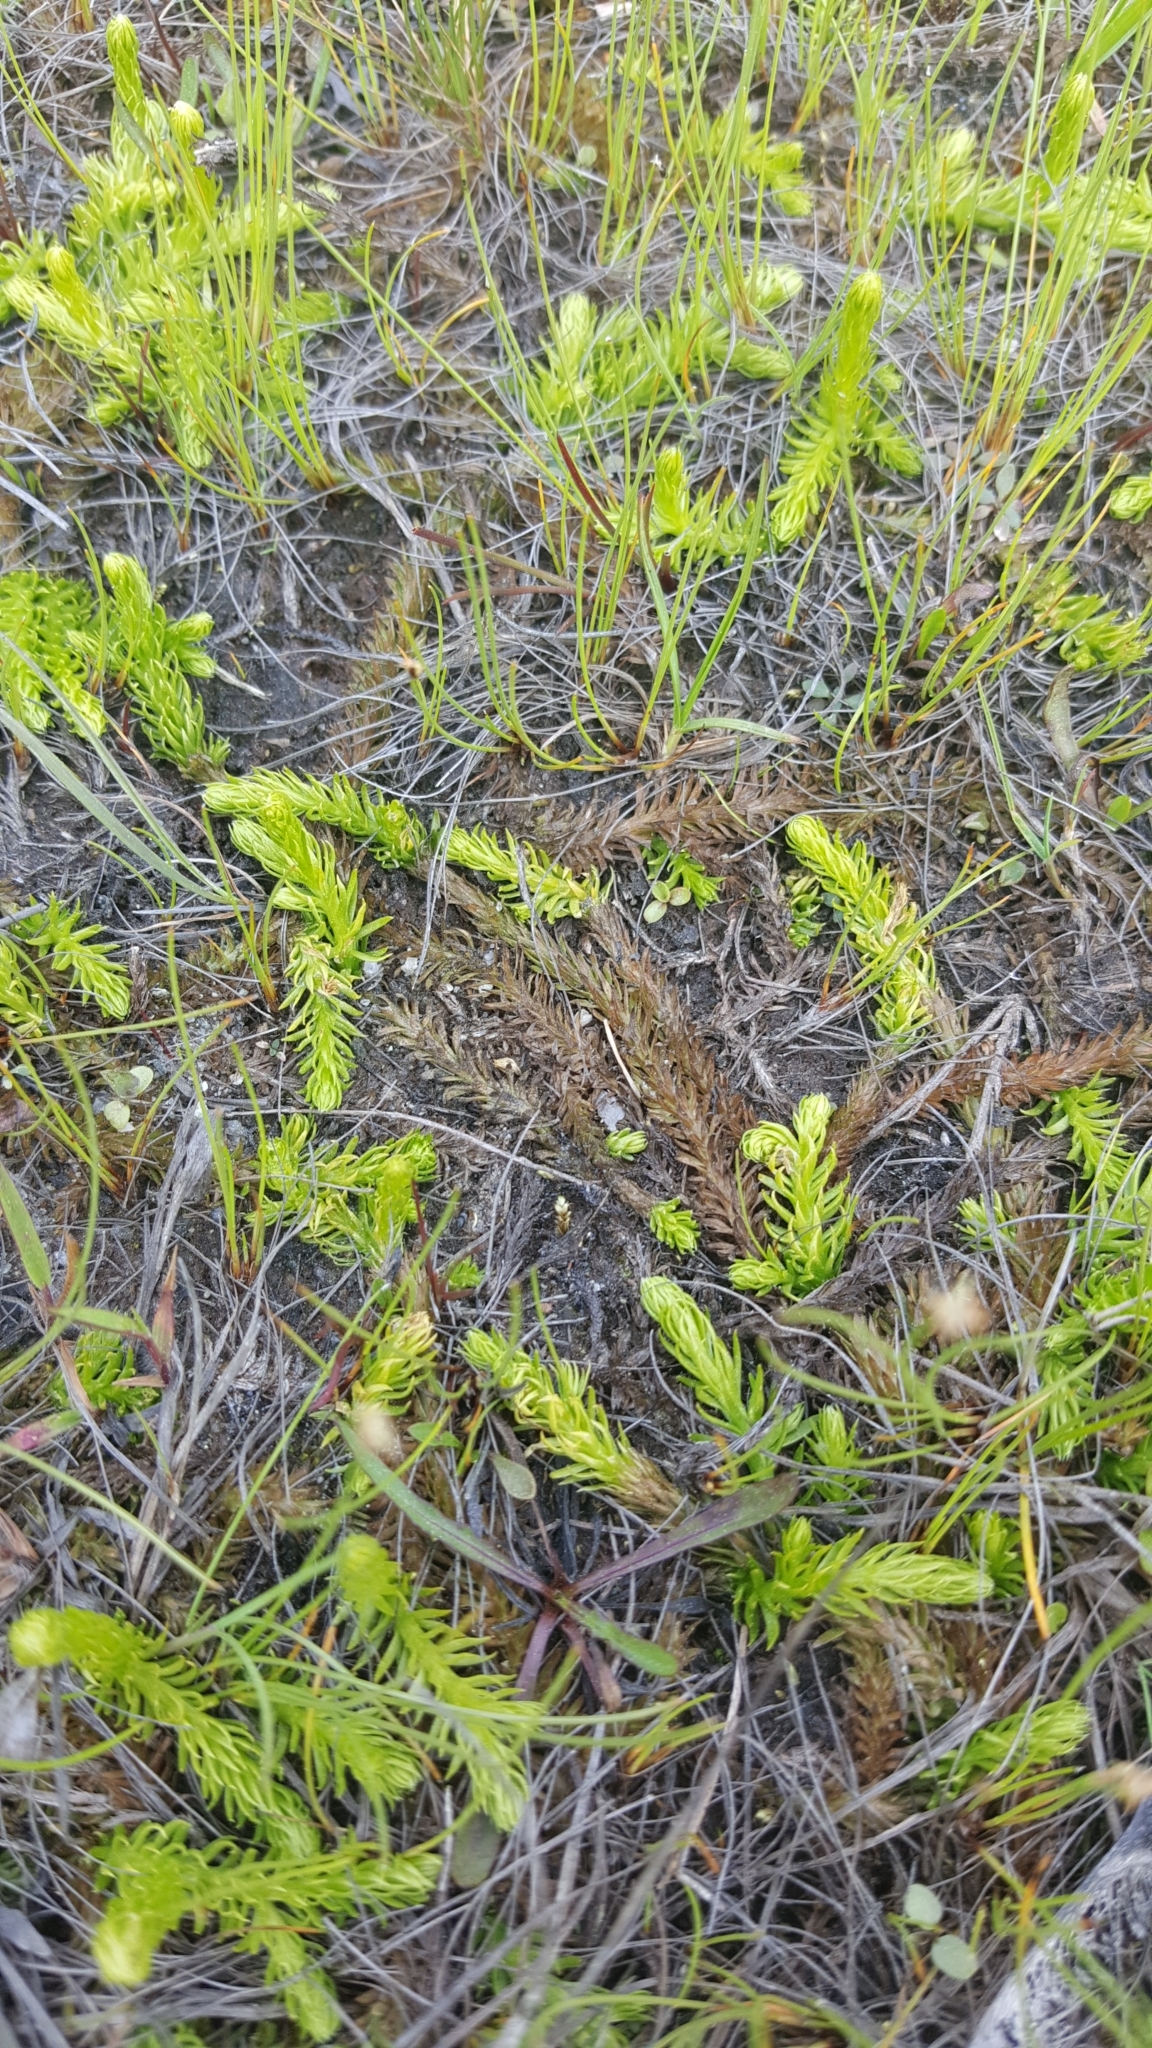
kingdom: Plantae
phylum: Tracheophyta
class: Lycopodiopsida
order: Lycopodiales
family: Lycopodiaceae
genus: Lycopodiella
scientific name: Lycopodiella inundata
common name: Marsh clubmoss
